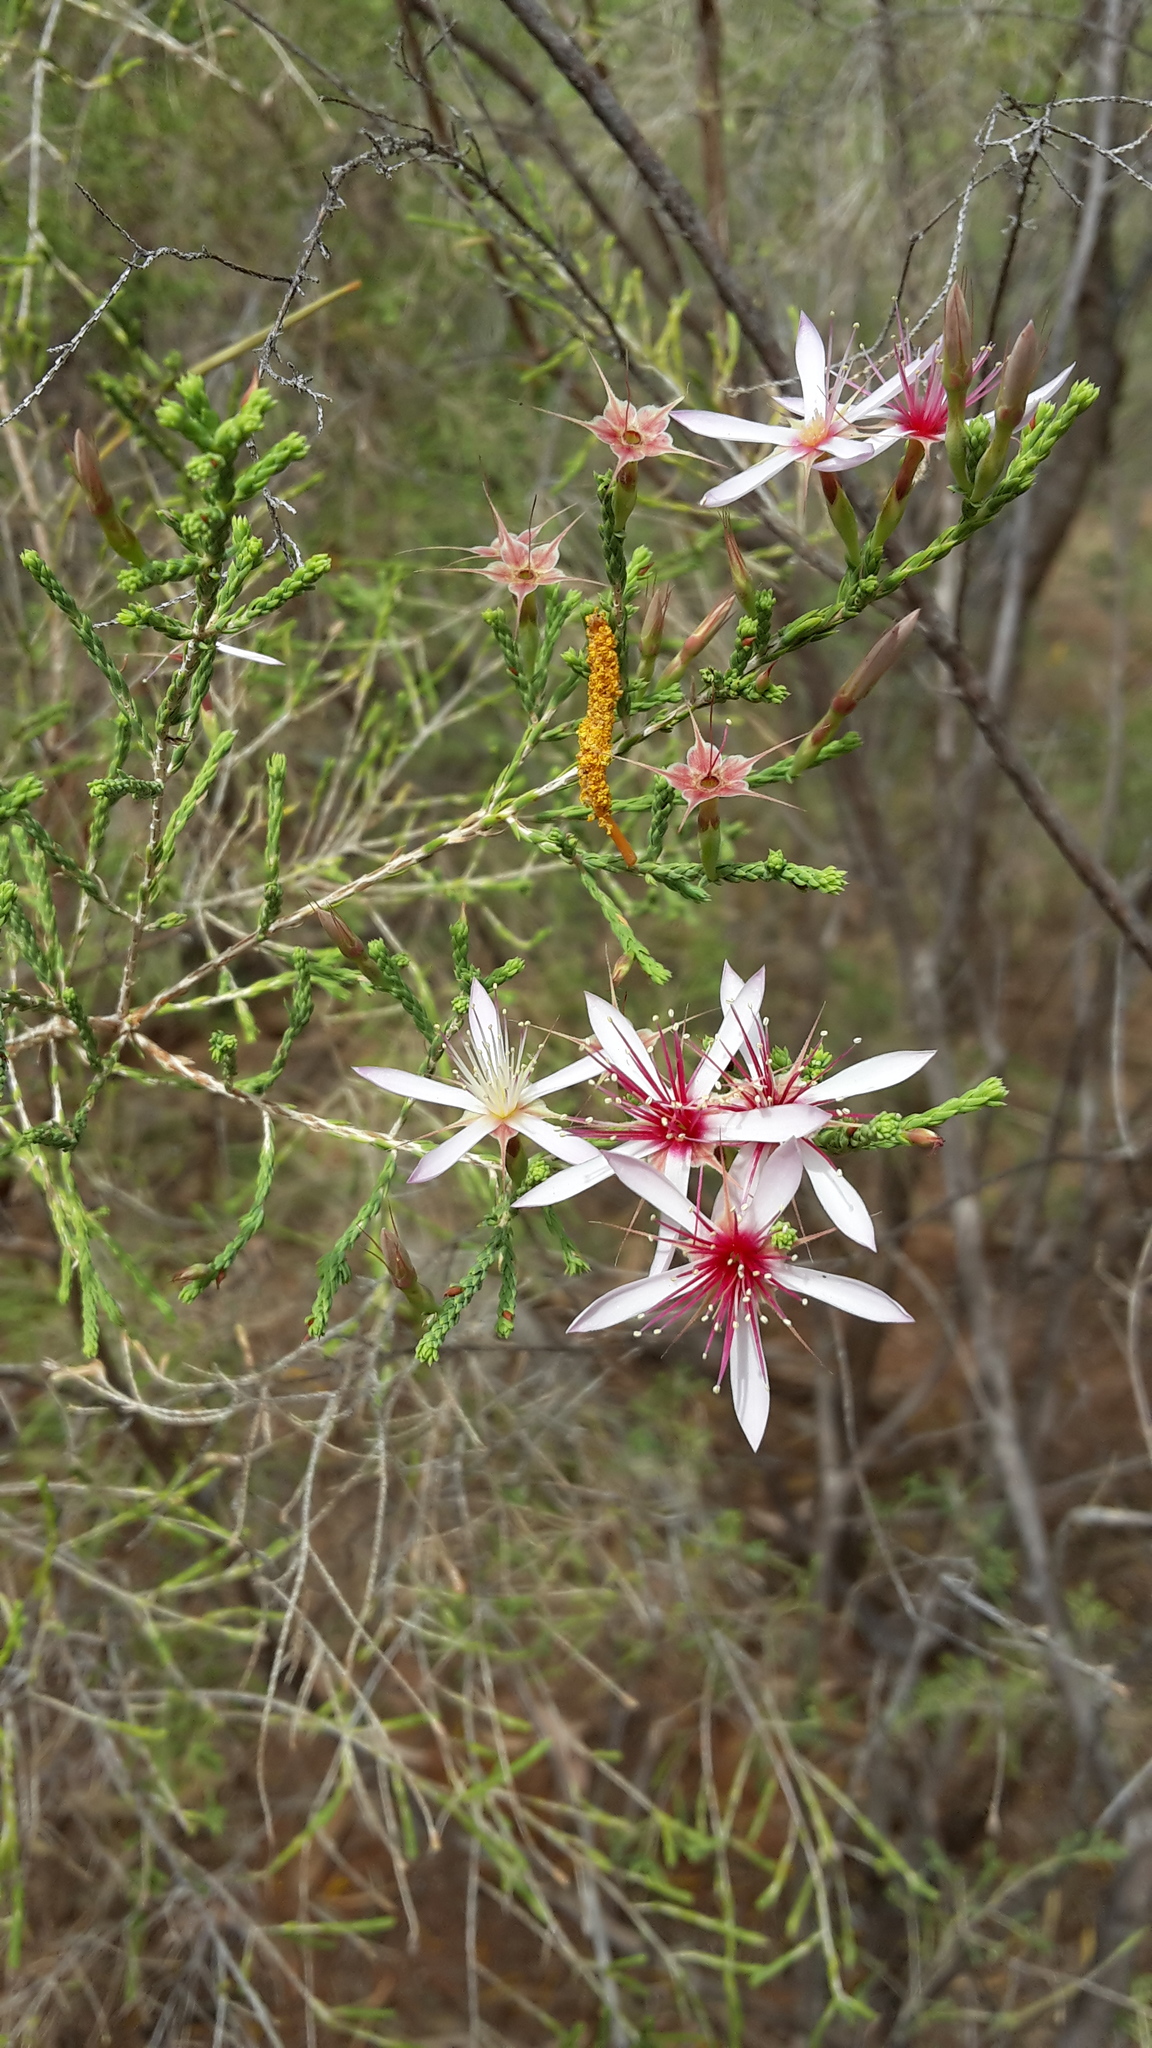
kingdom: Plantae
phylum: Tracheophyta
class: Magnoliopsida
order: Myrtales
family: Myrtaceae
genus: Calytrix
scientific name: Calytrix exstipulata
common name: Kimberley heather
